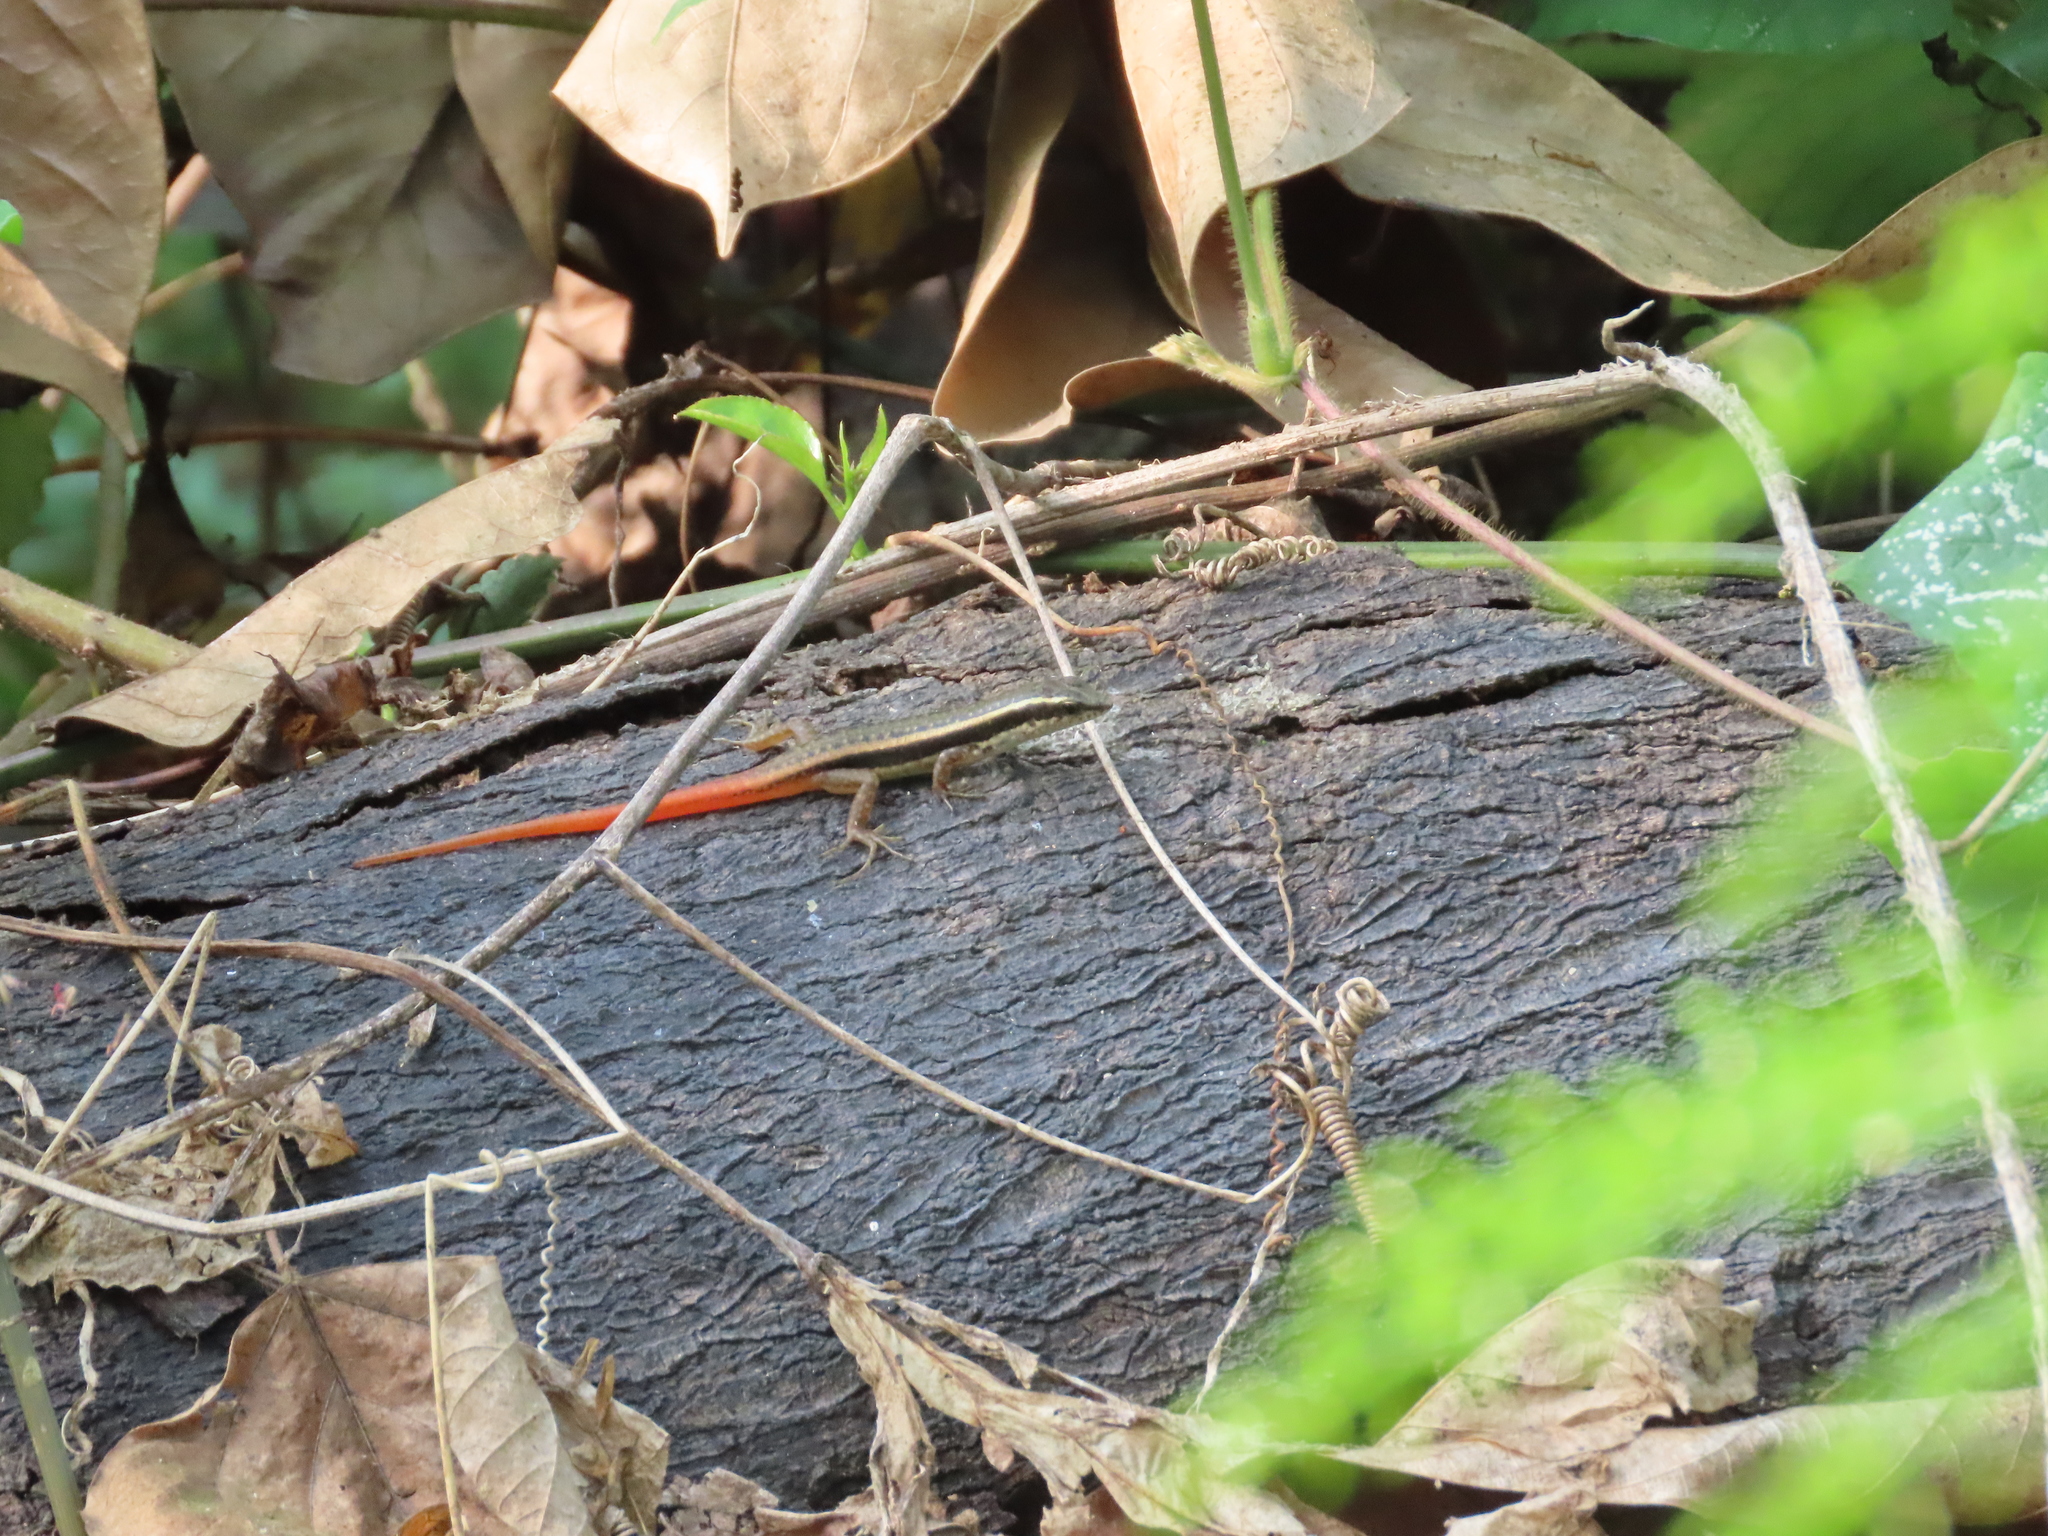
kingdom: Animalia
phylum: Chordata
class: Squamata
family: Scincidae
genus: Sphenomorphus
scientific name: Sphenomorphus dussumieri
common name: Dussumier's forest skink
